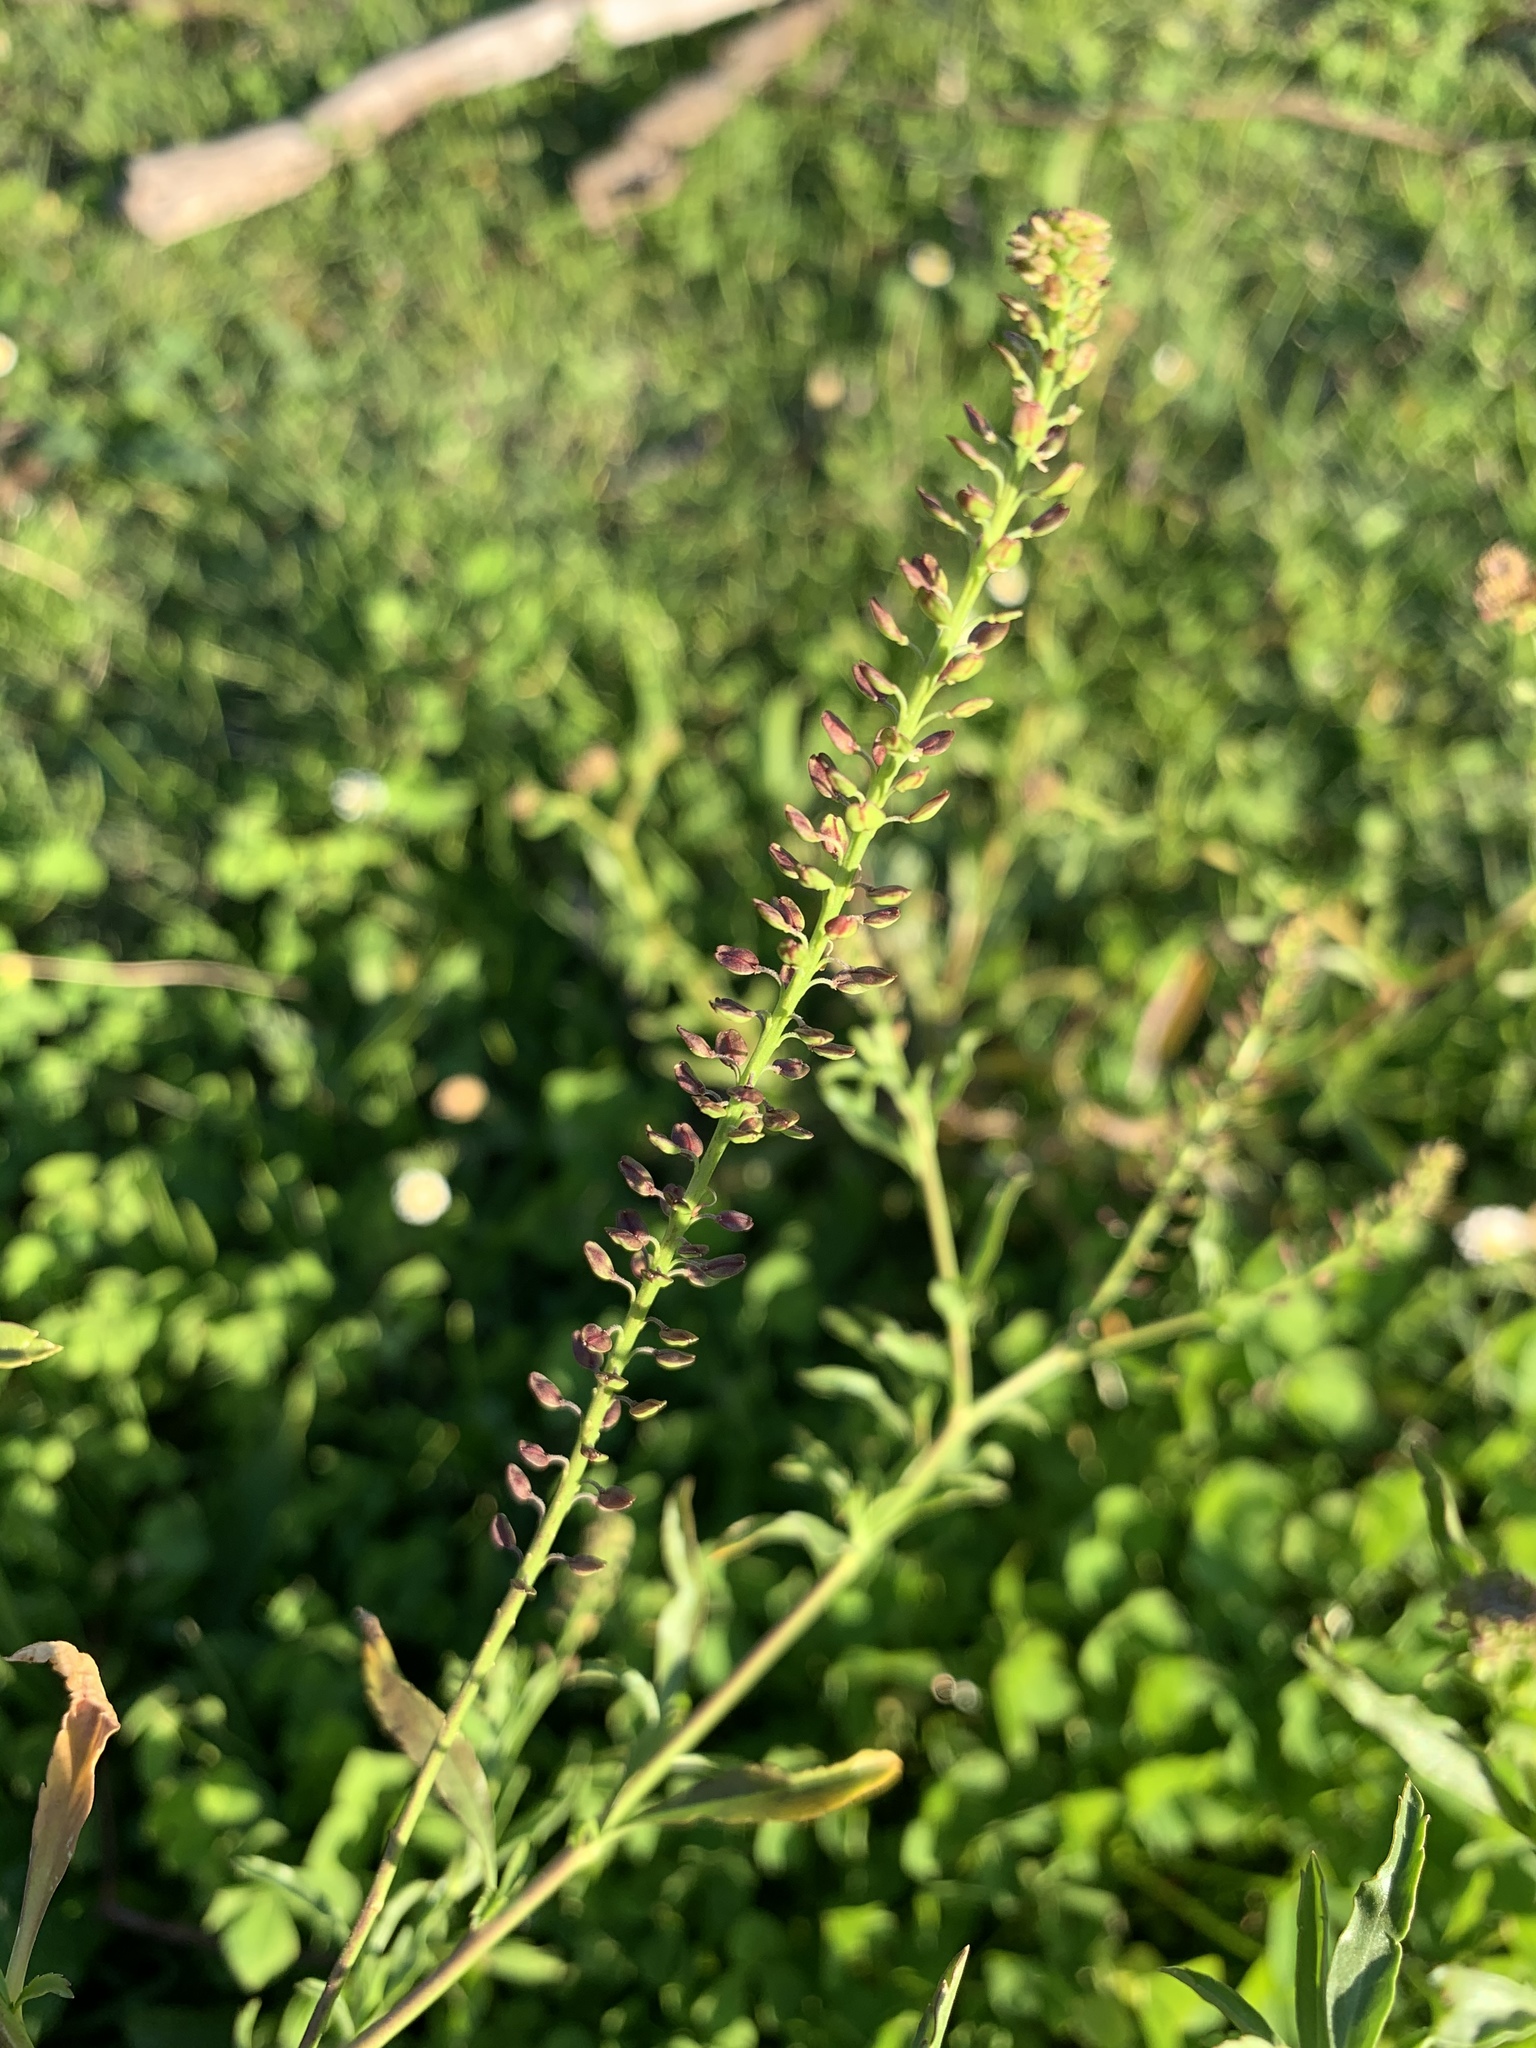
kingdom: Plantae
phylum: Tracheophyta
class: Magnoliopsida
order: Brassicales
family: Brassicaceae
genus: Lepidium
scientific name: Lepidium africanum
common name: African pepperwort
